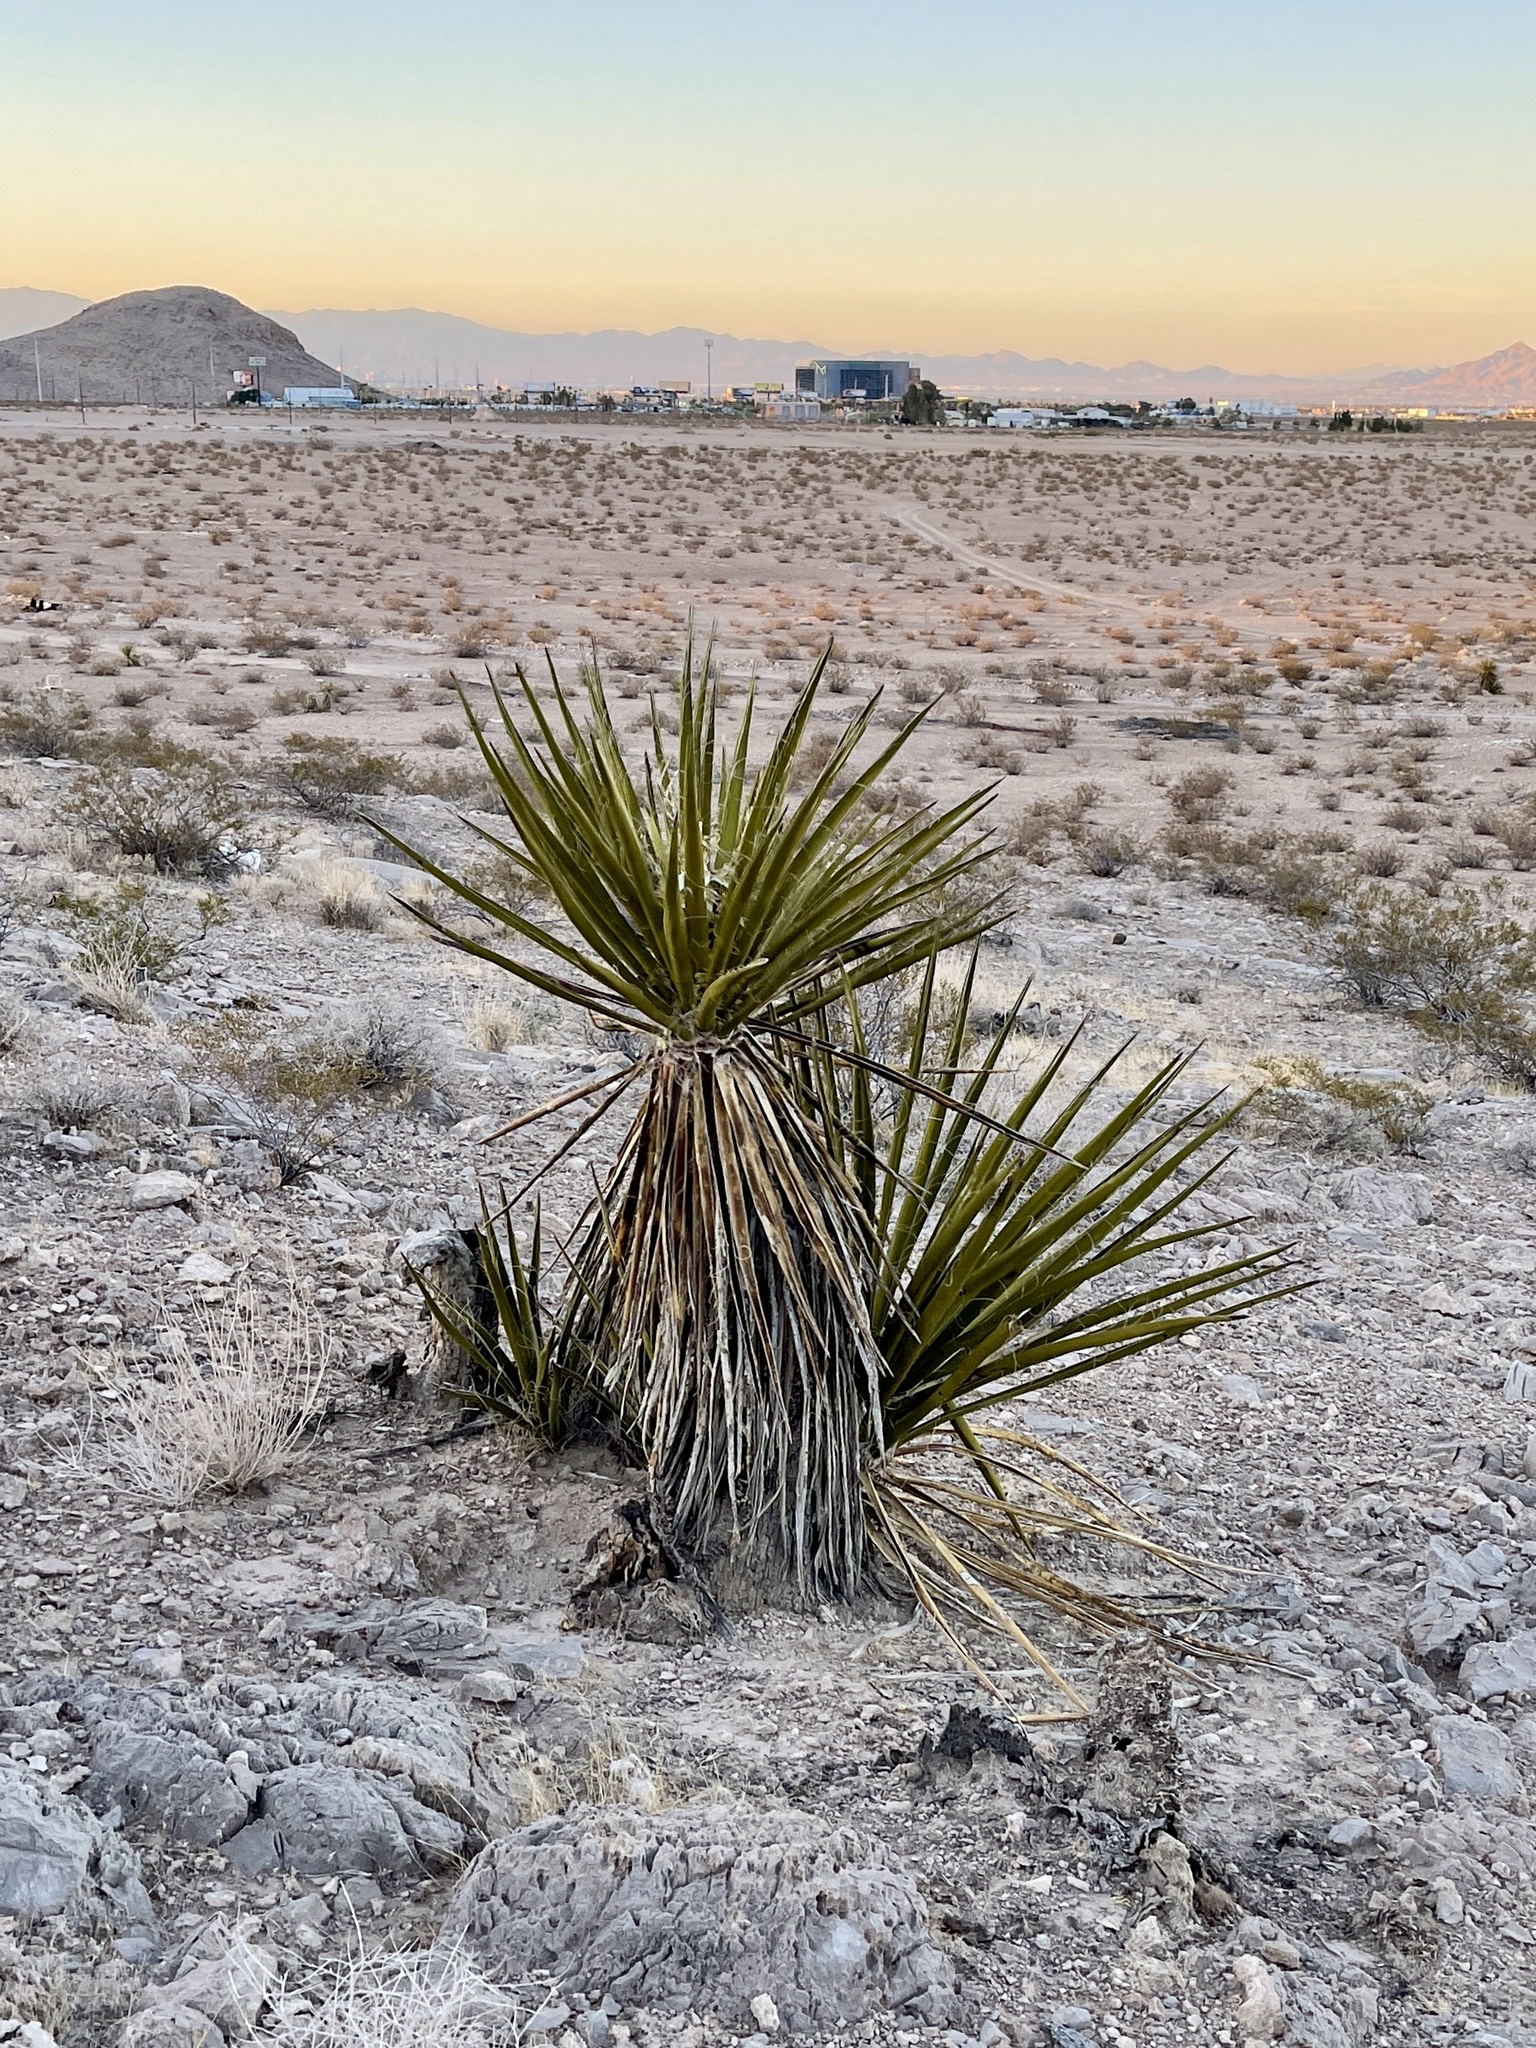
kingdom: Plantae
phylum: Tracheophyta
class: Liliopsida
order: Asparagales
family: Asparagaceae
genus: Yucca
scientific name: Yucca schidigera
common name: Mojave yucca
